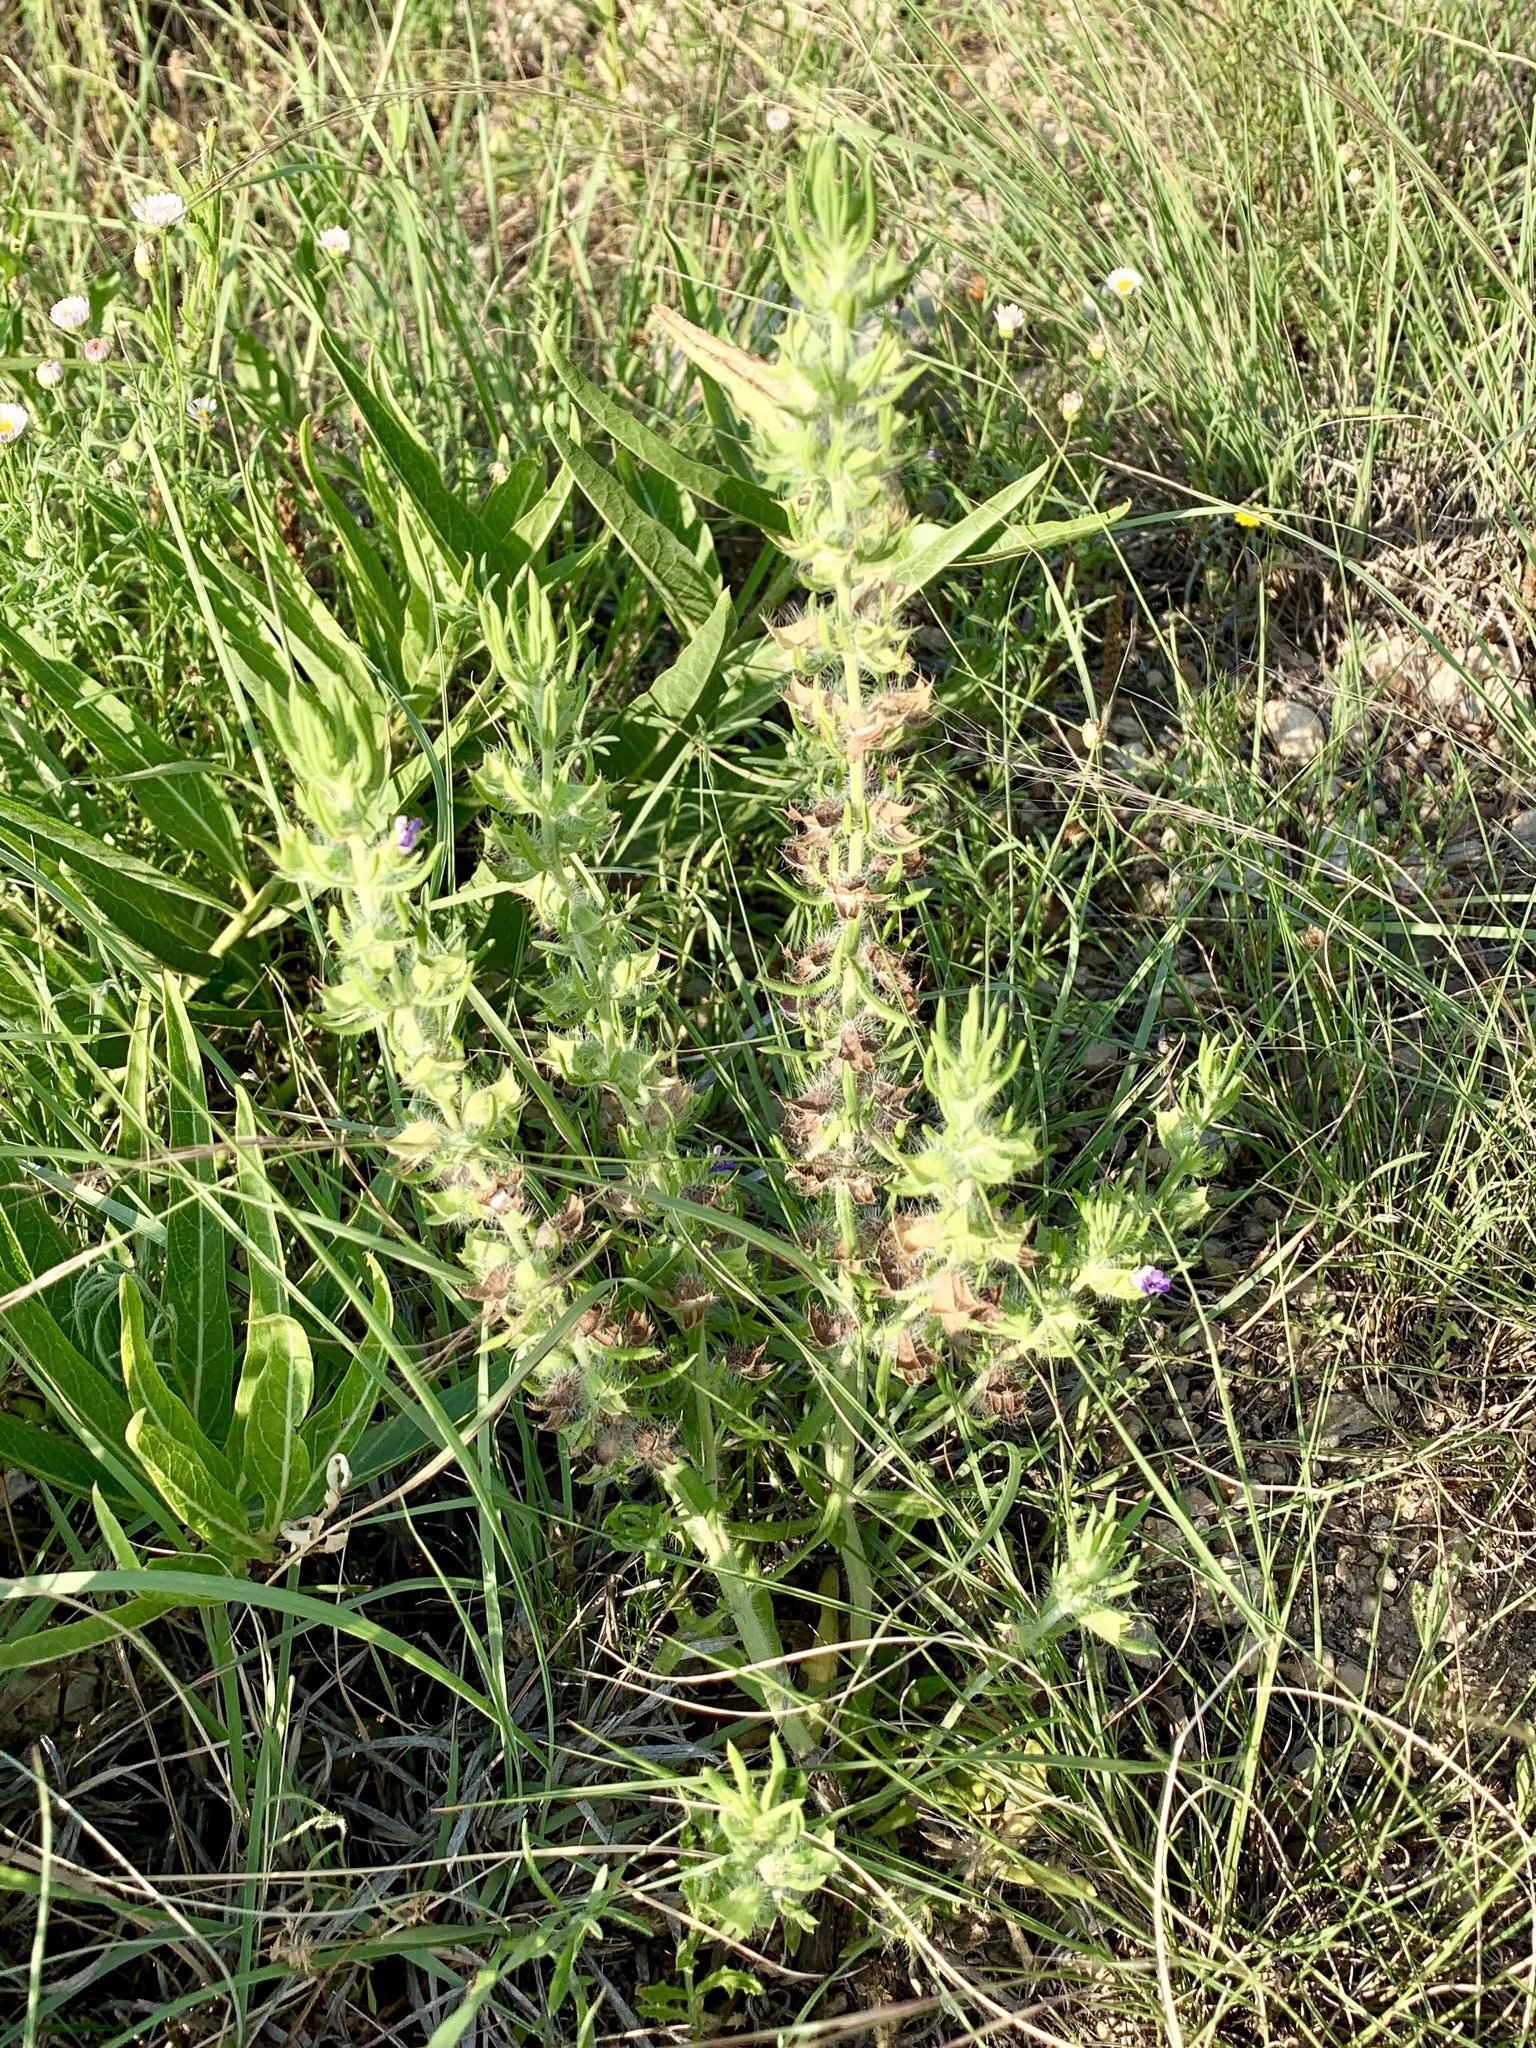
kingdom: Plantae
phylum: Tracheophyta
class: Magnoliopsida
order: Lamiales
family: Lamiaceae
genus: Salvia
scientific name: Salvia texana
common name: Texas sage
